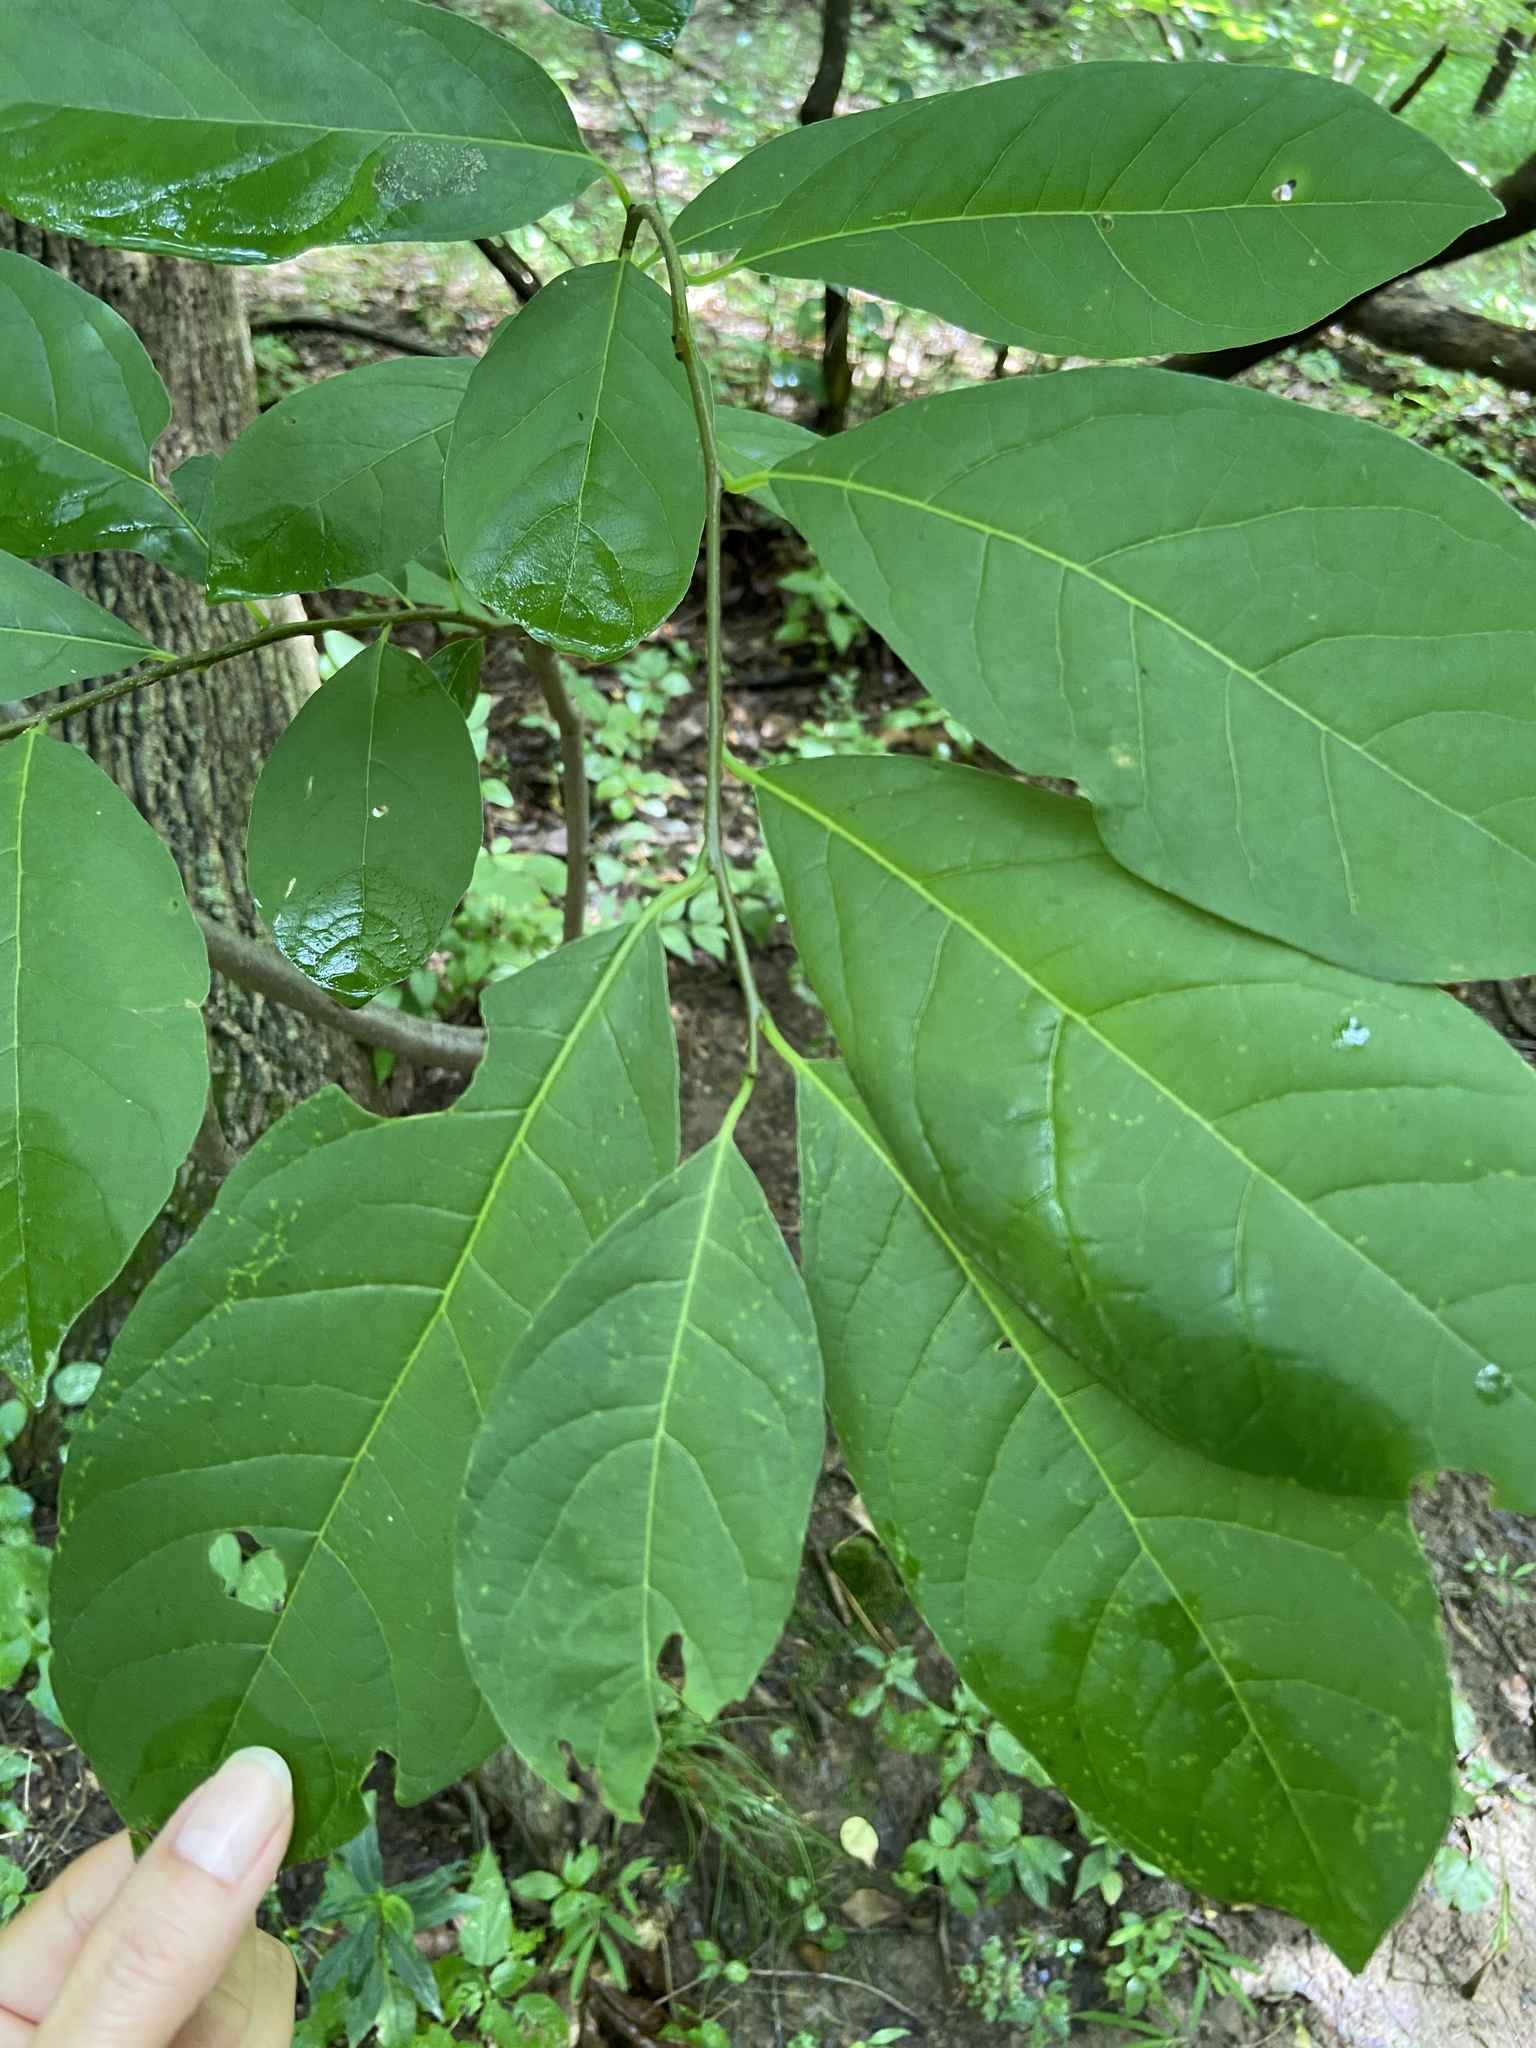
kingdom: Plantae
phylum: Tracheophyta
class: Magnoliopsida
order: Laurales
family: Lauraceae
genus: Lindera
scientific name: Lindera benzoin
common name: Spicebush
